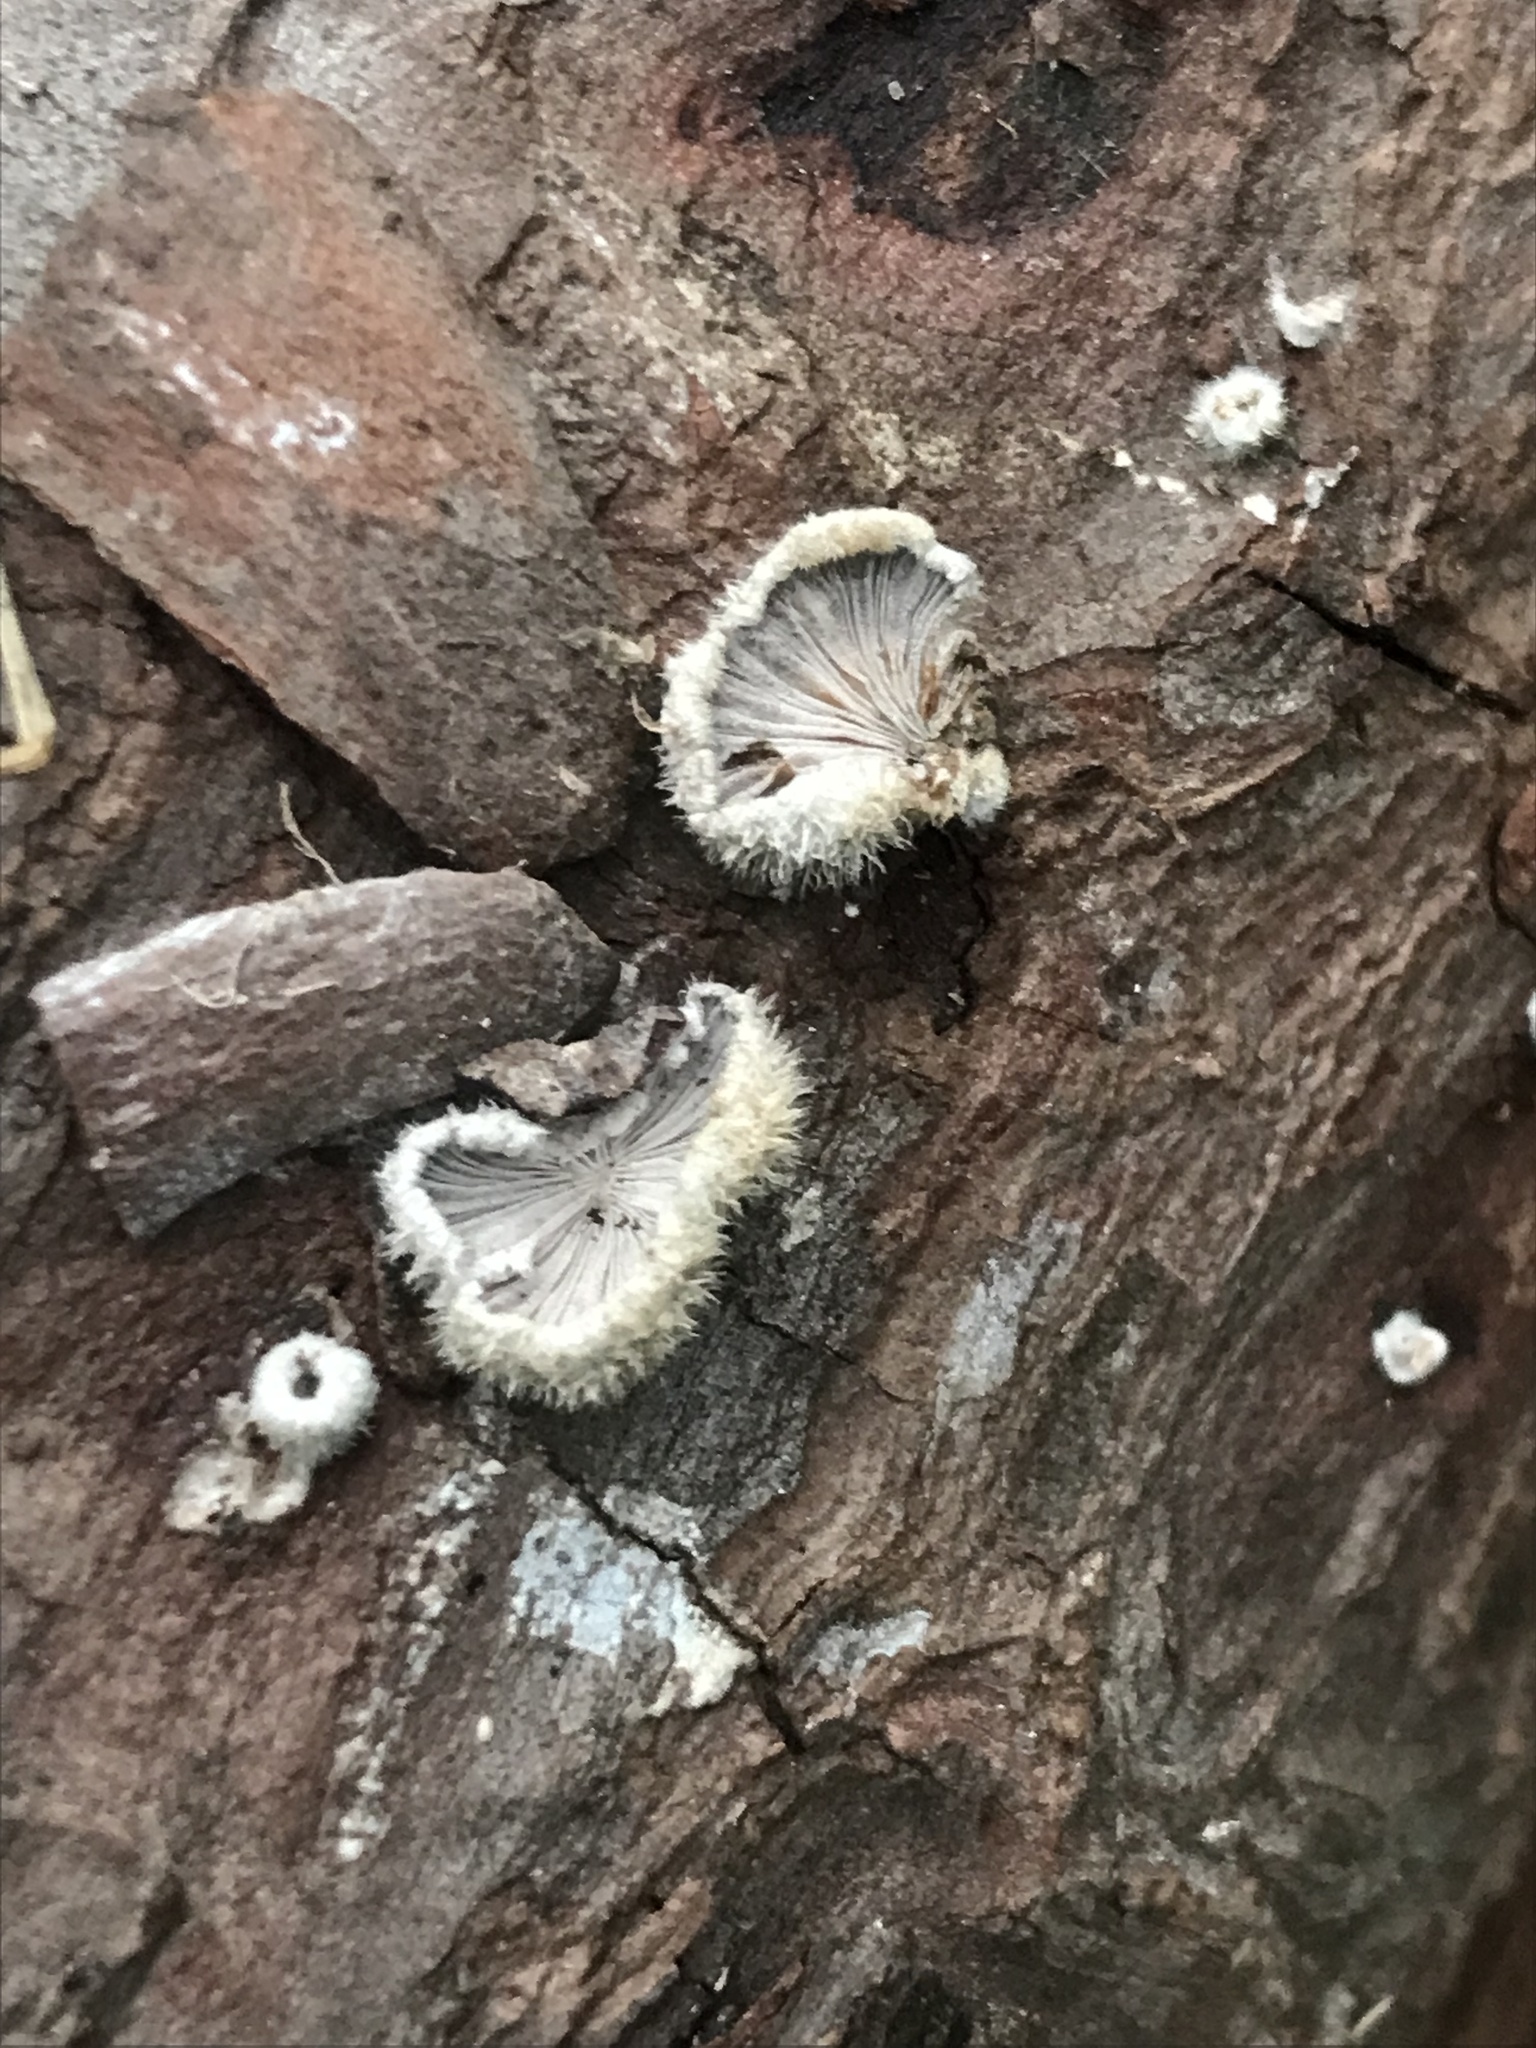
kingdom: Fungi
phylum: Basidiomycota
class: Agaricomycetes
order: Agaricales
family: Schizophyllaceae
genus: Schizophyllum
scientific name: Schizophyllum commune
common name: Common porecrust
